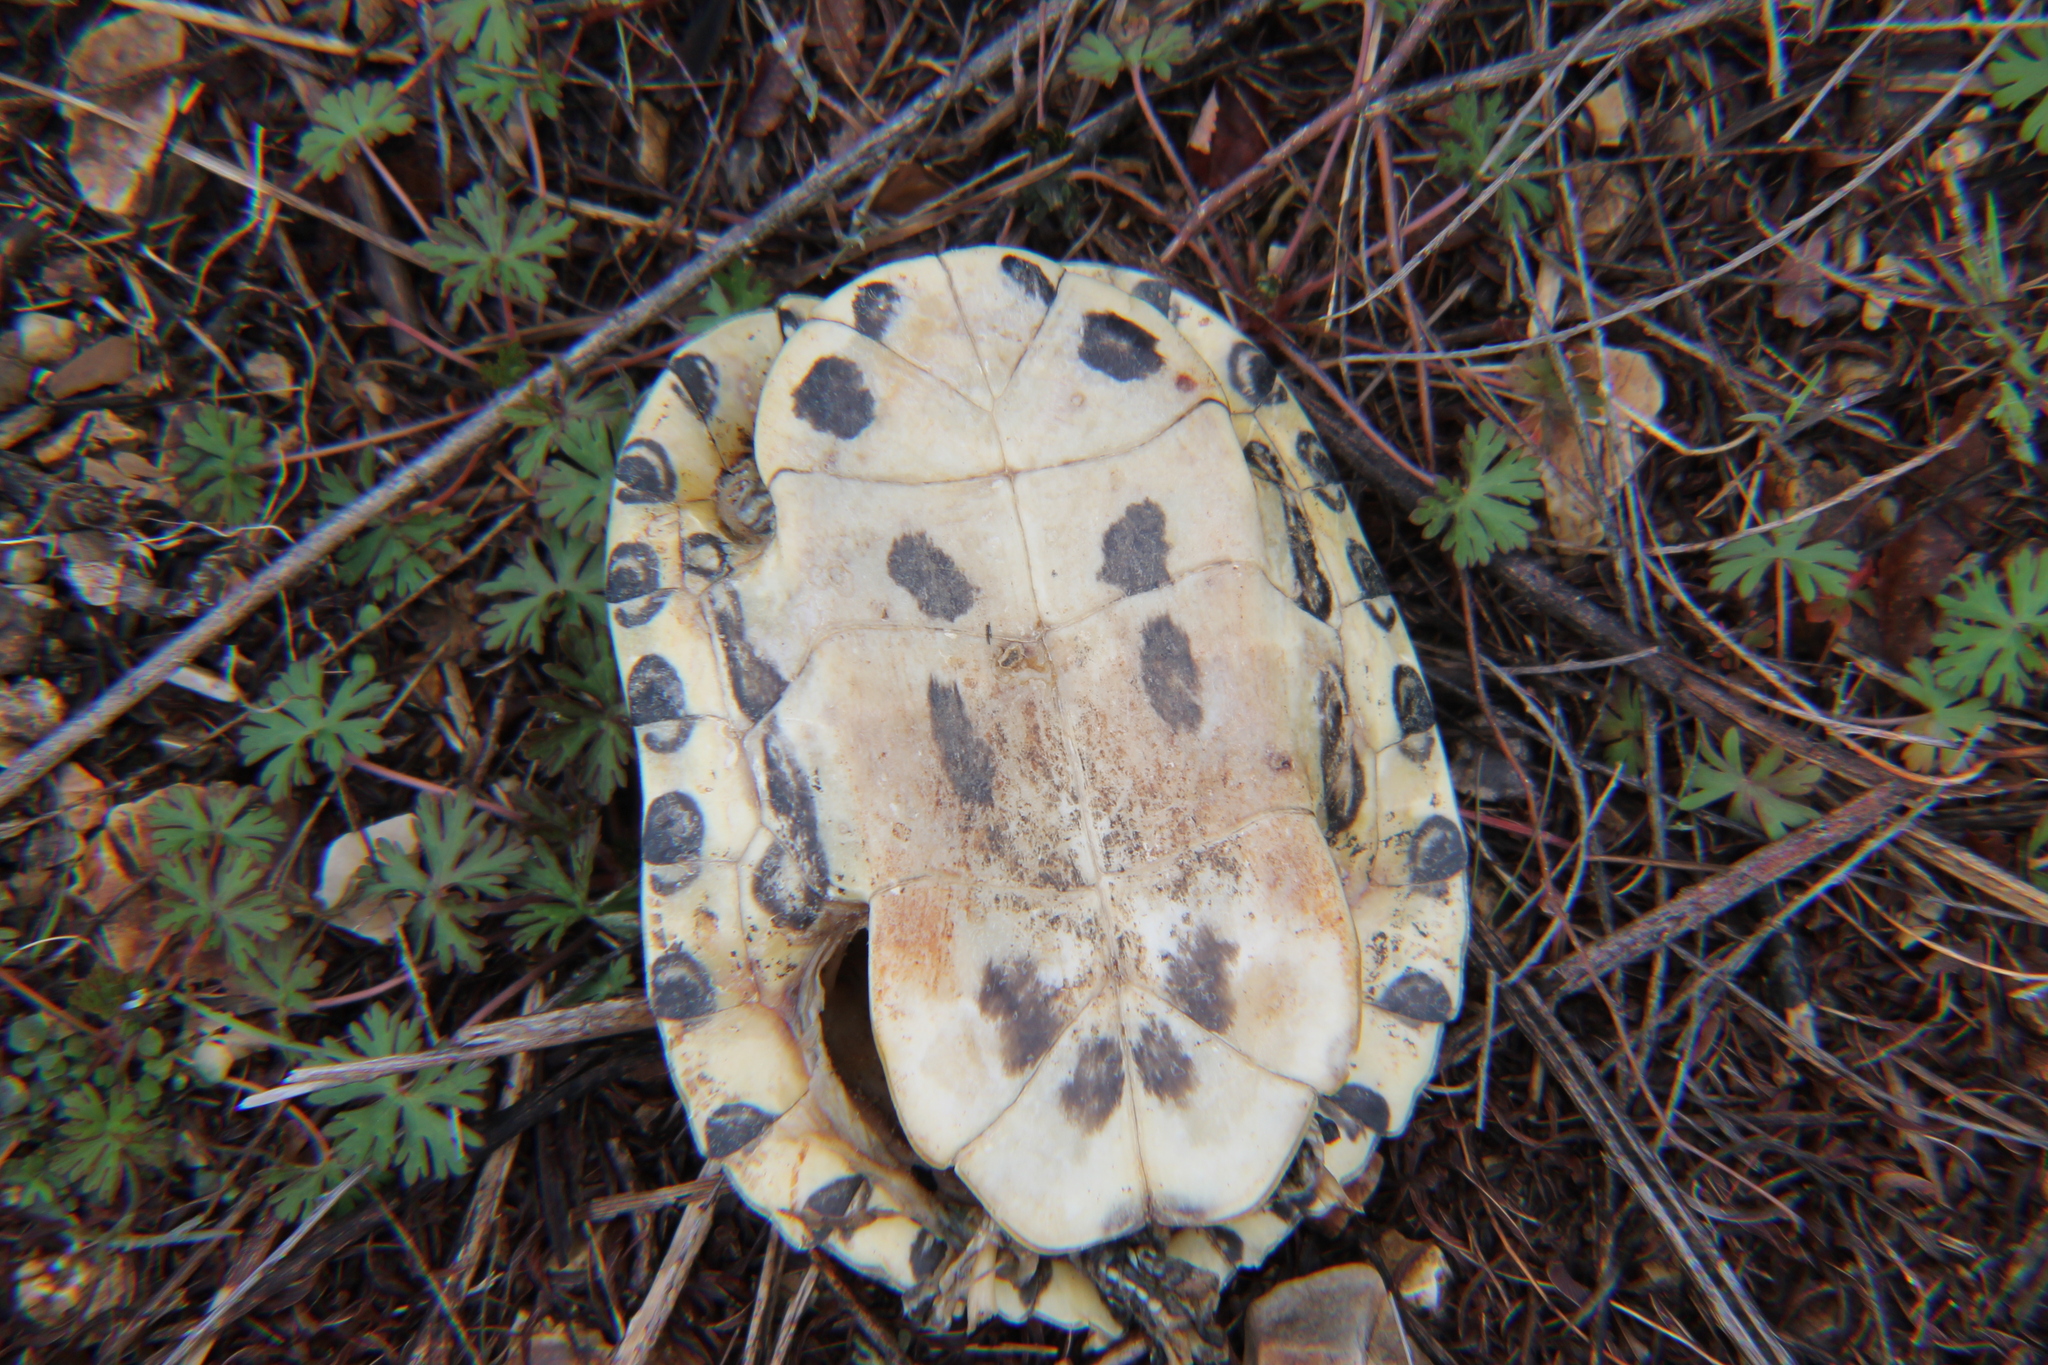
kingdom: Animalia
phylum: Chordata
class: Testudines
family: Emydidae
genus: Trachemys
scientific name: Trachemys scripta
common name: Slider
